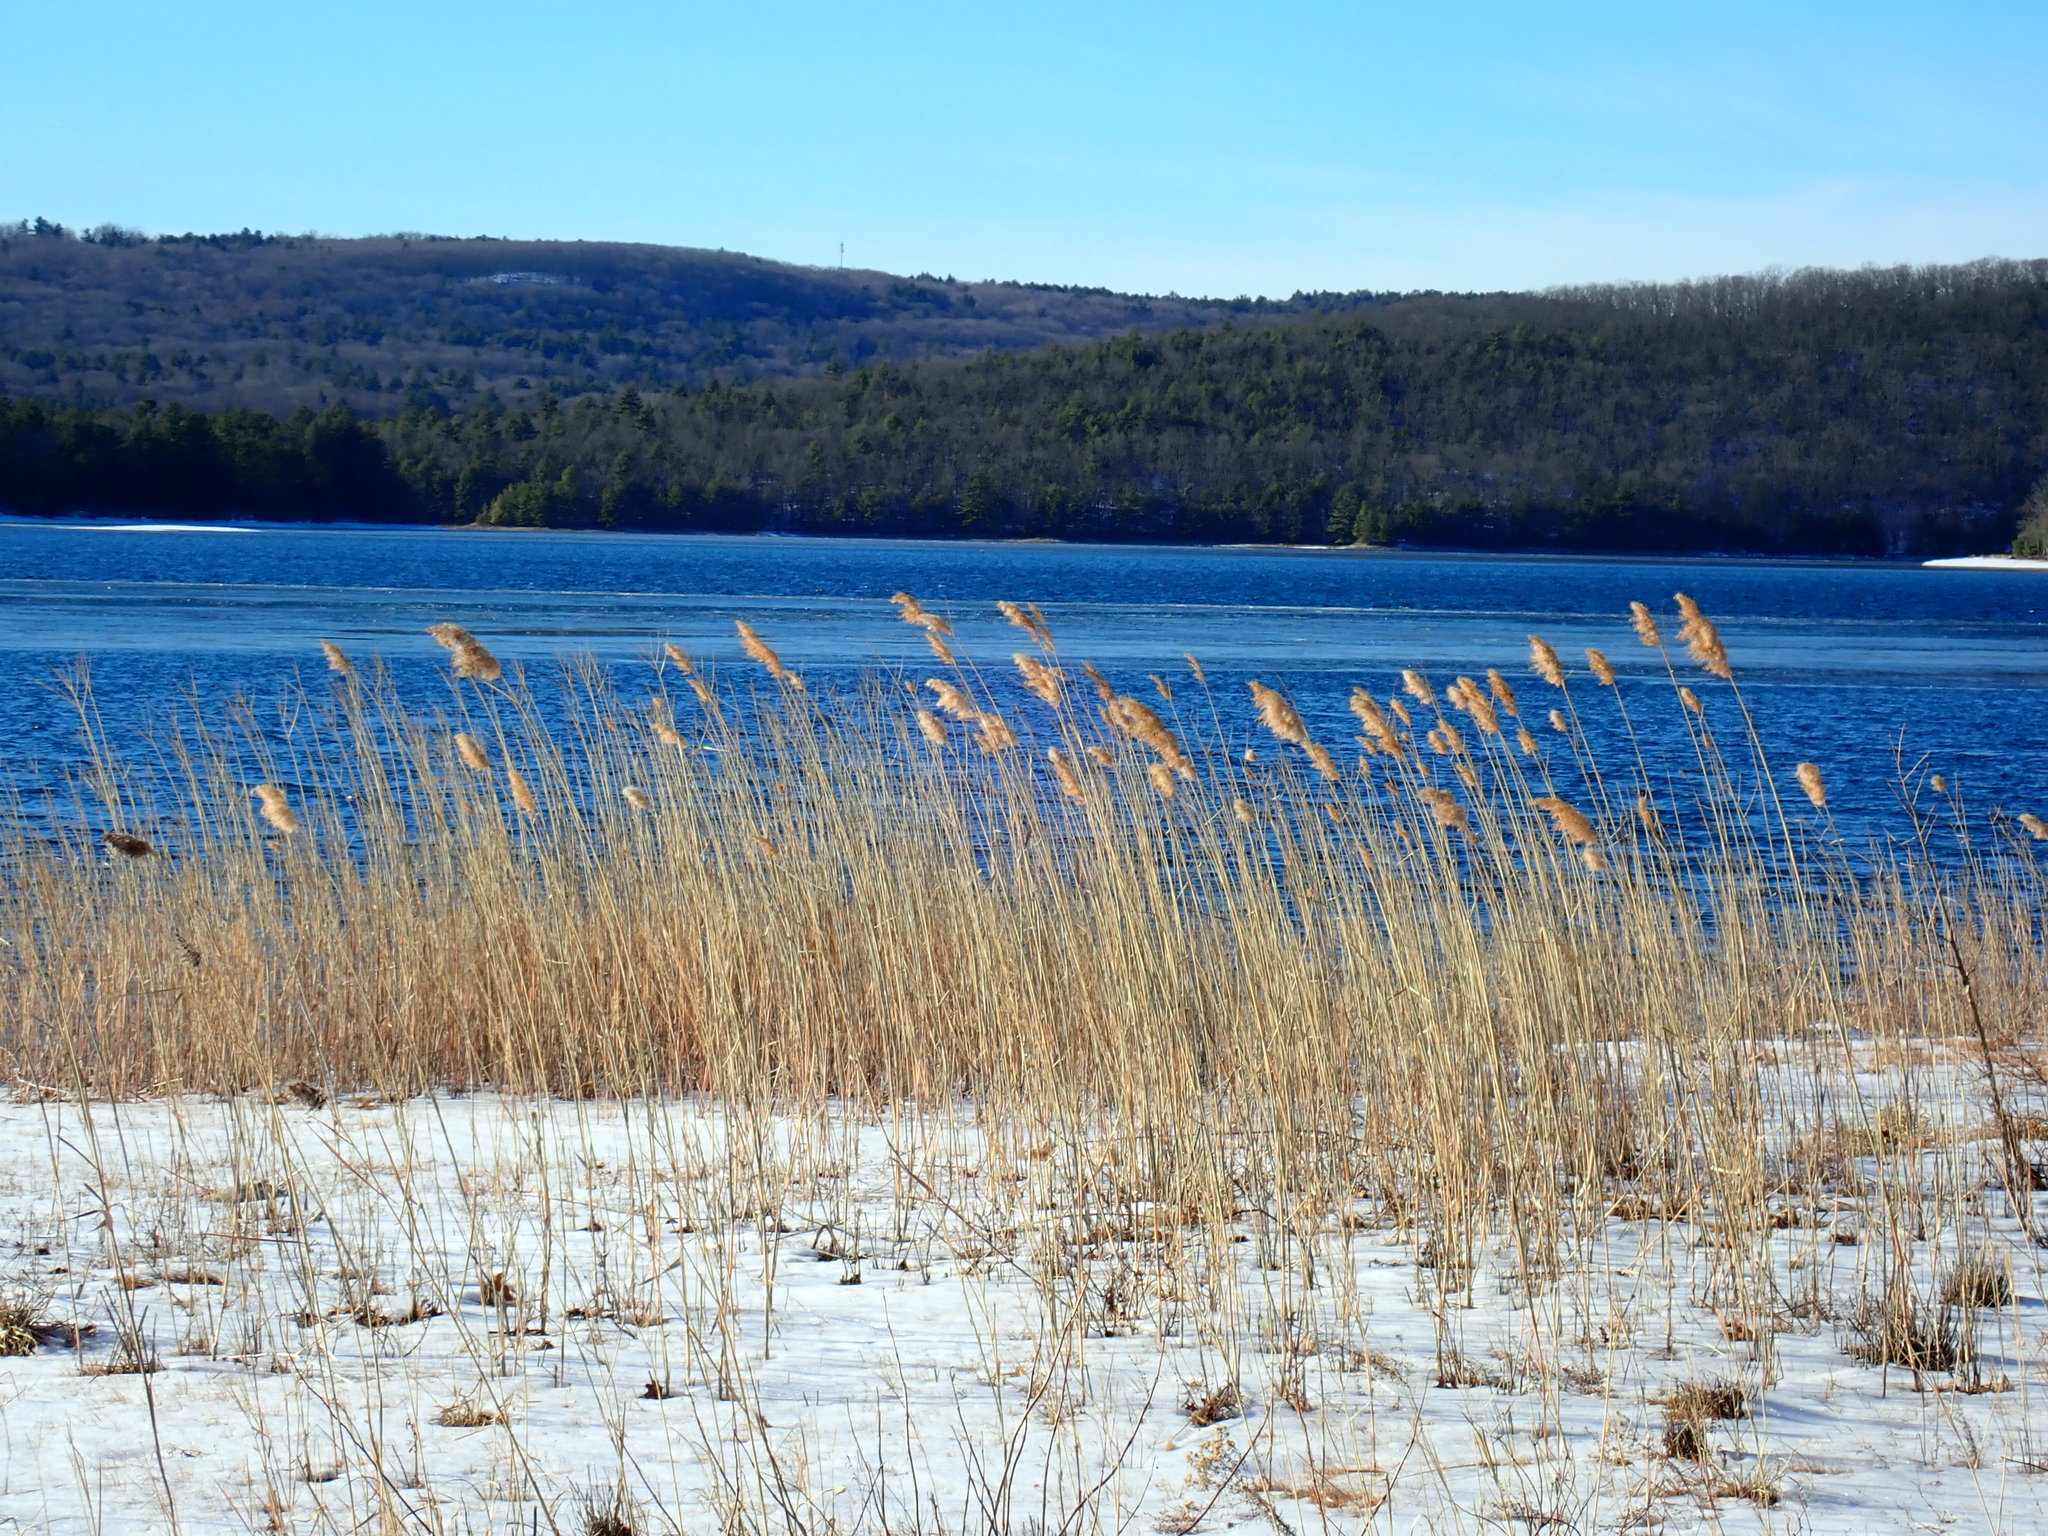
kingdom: Plantae
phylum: Tracheophyta
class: Liliopsida
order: Poales
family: Poaceae
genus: Phragmites
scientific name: Phragmites australis
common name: Common reed
